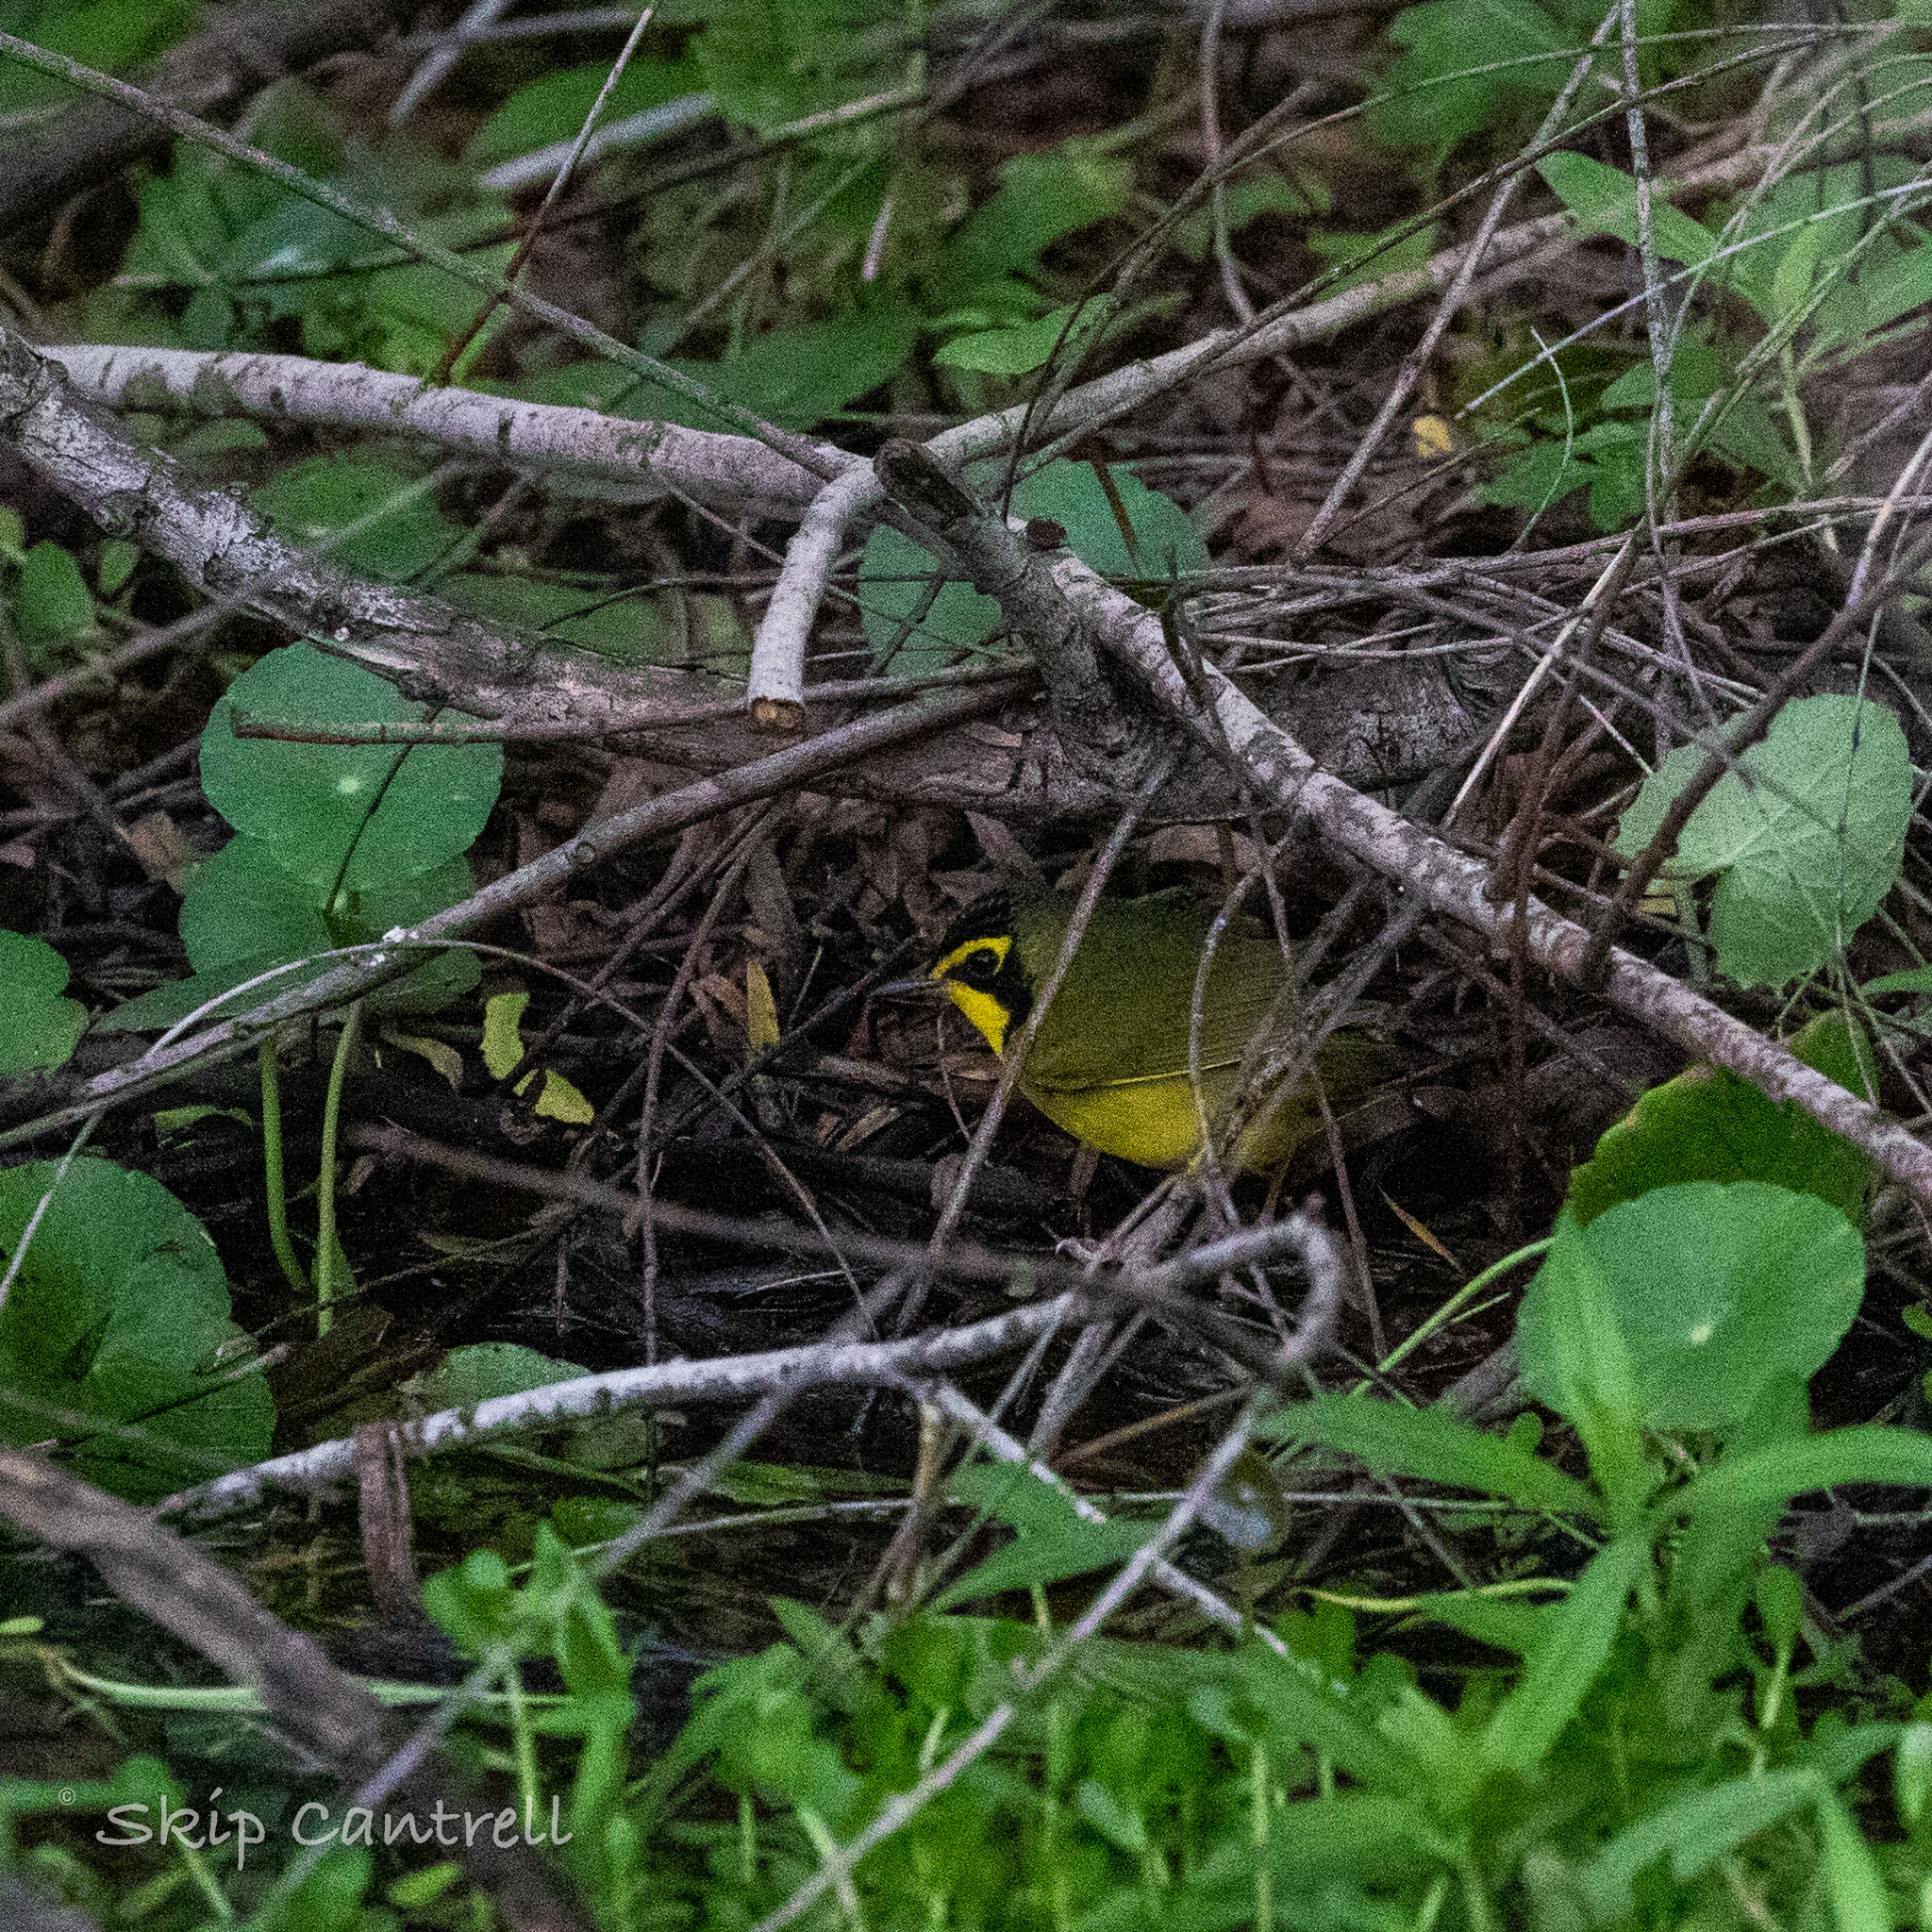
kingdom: Animalia
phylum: Chordata
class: Aves
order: Passeriformes
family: Parulidae
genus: Geothlypis
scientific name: Geothlypis formosa
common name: Kentucky warbler
